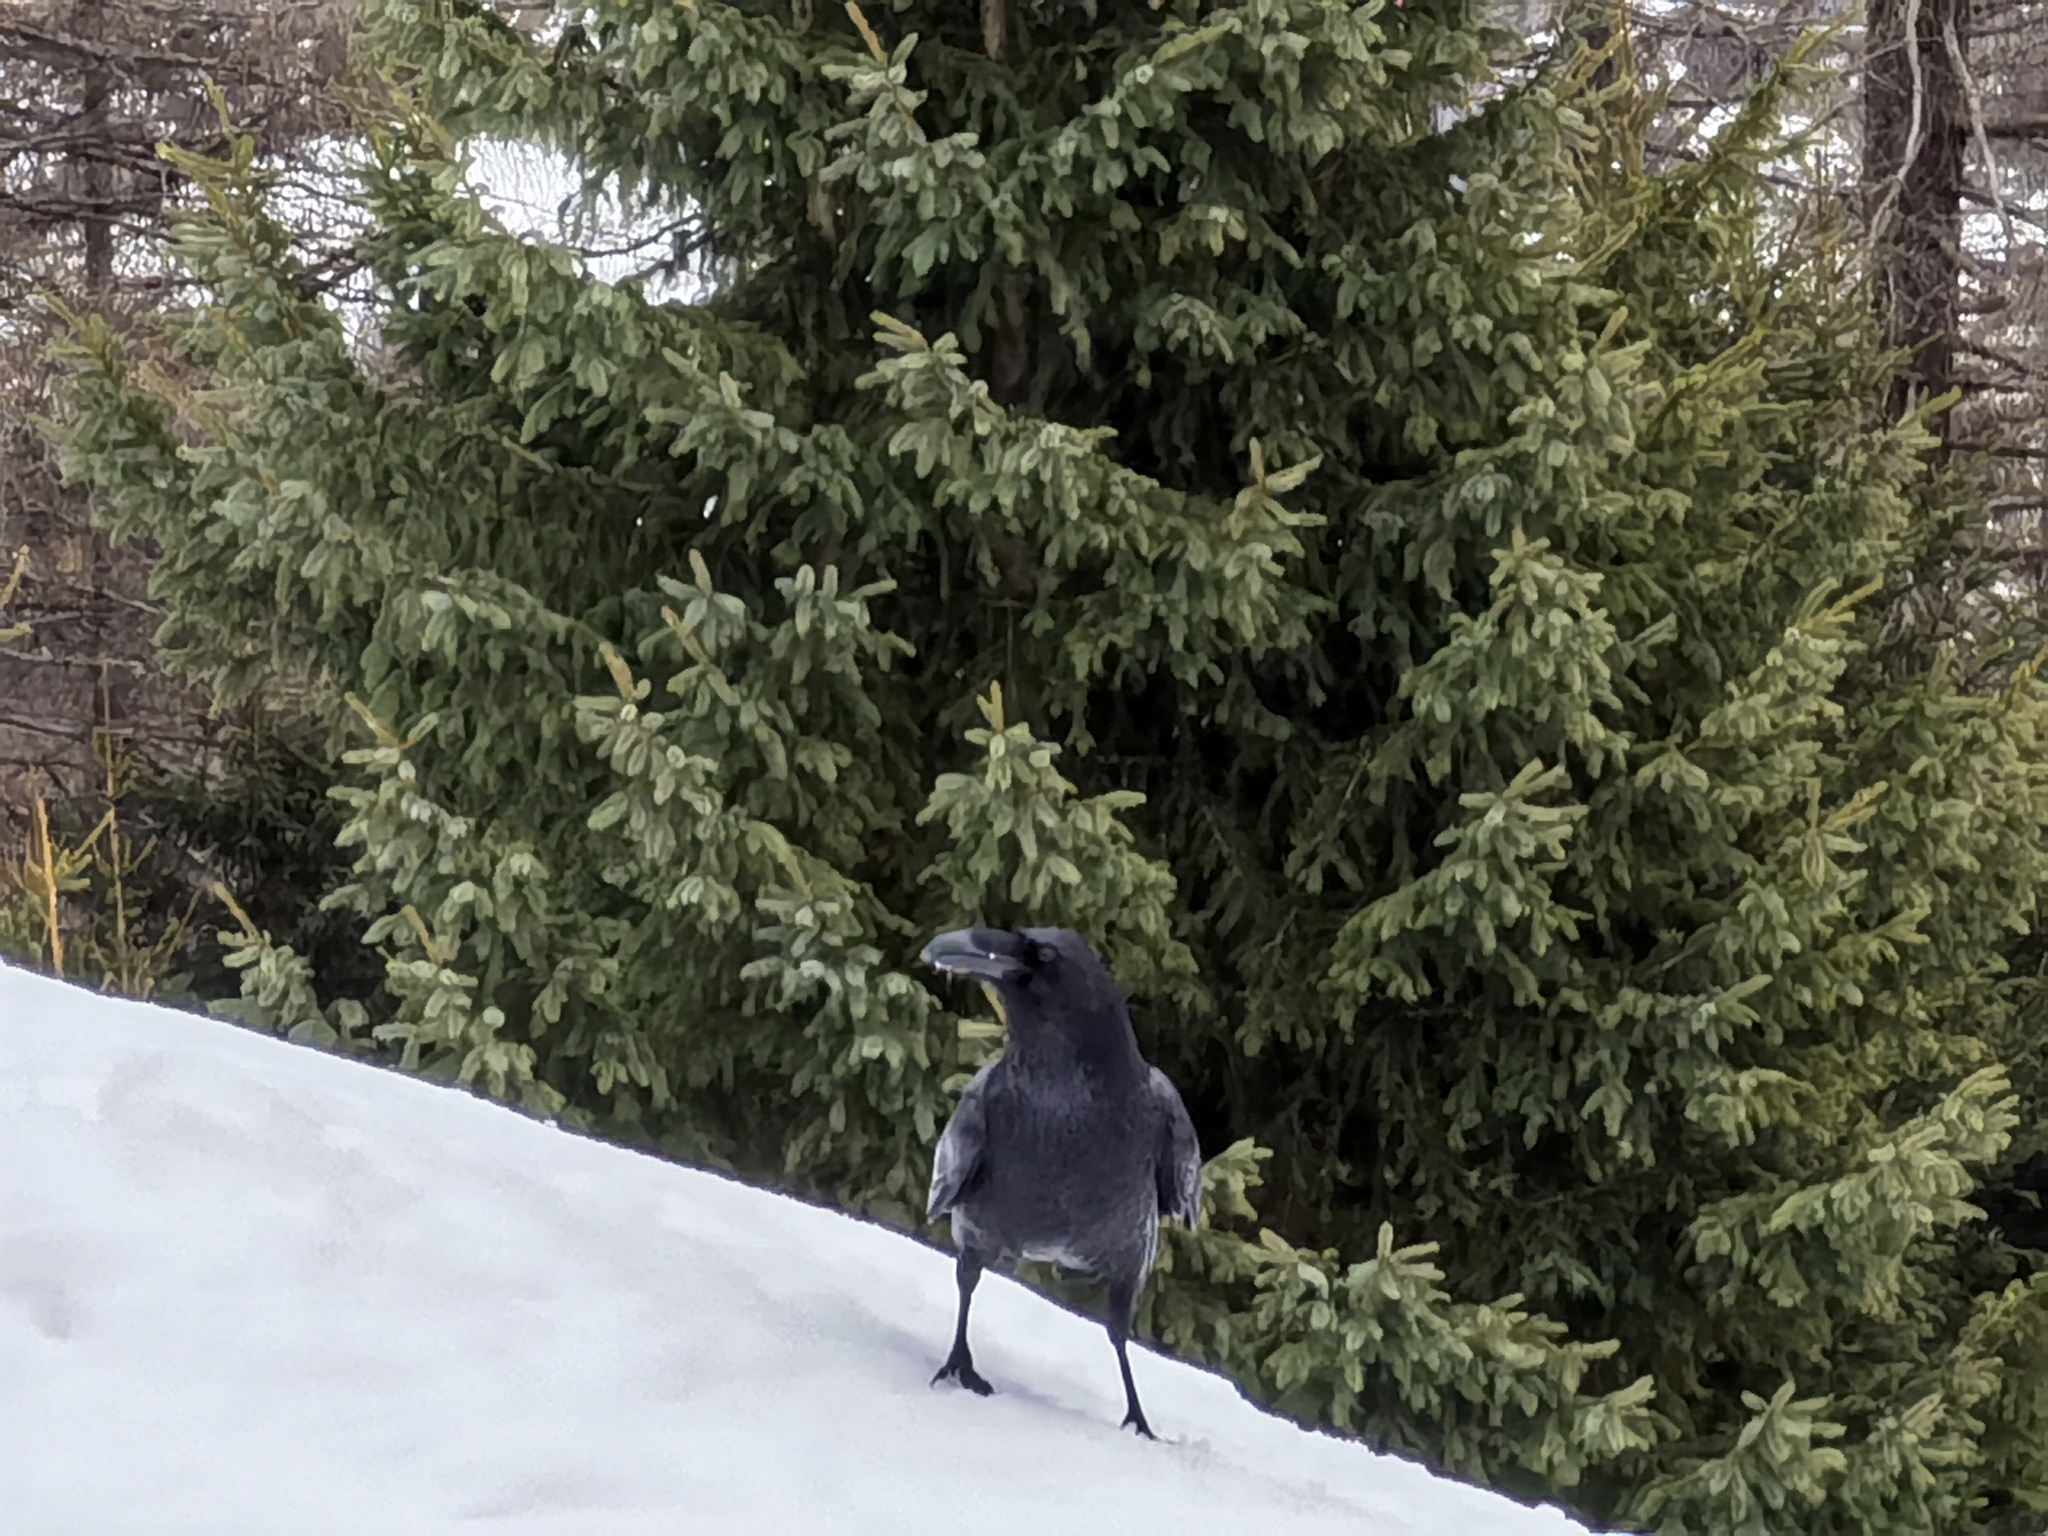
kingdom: Animalia
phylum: Chordata
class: Aves
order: Passeriformes
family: Corvidae
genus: Corvus
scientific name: Corvus corax
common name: Common raven
